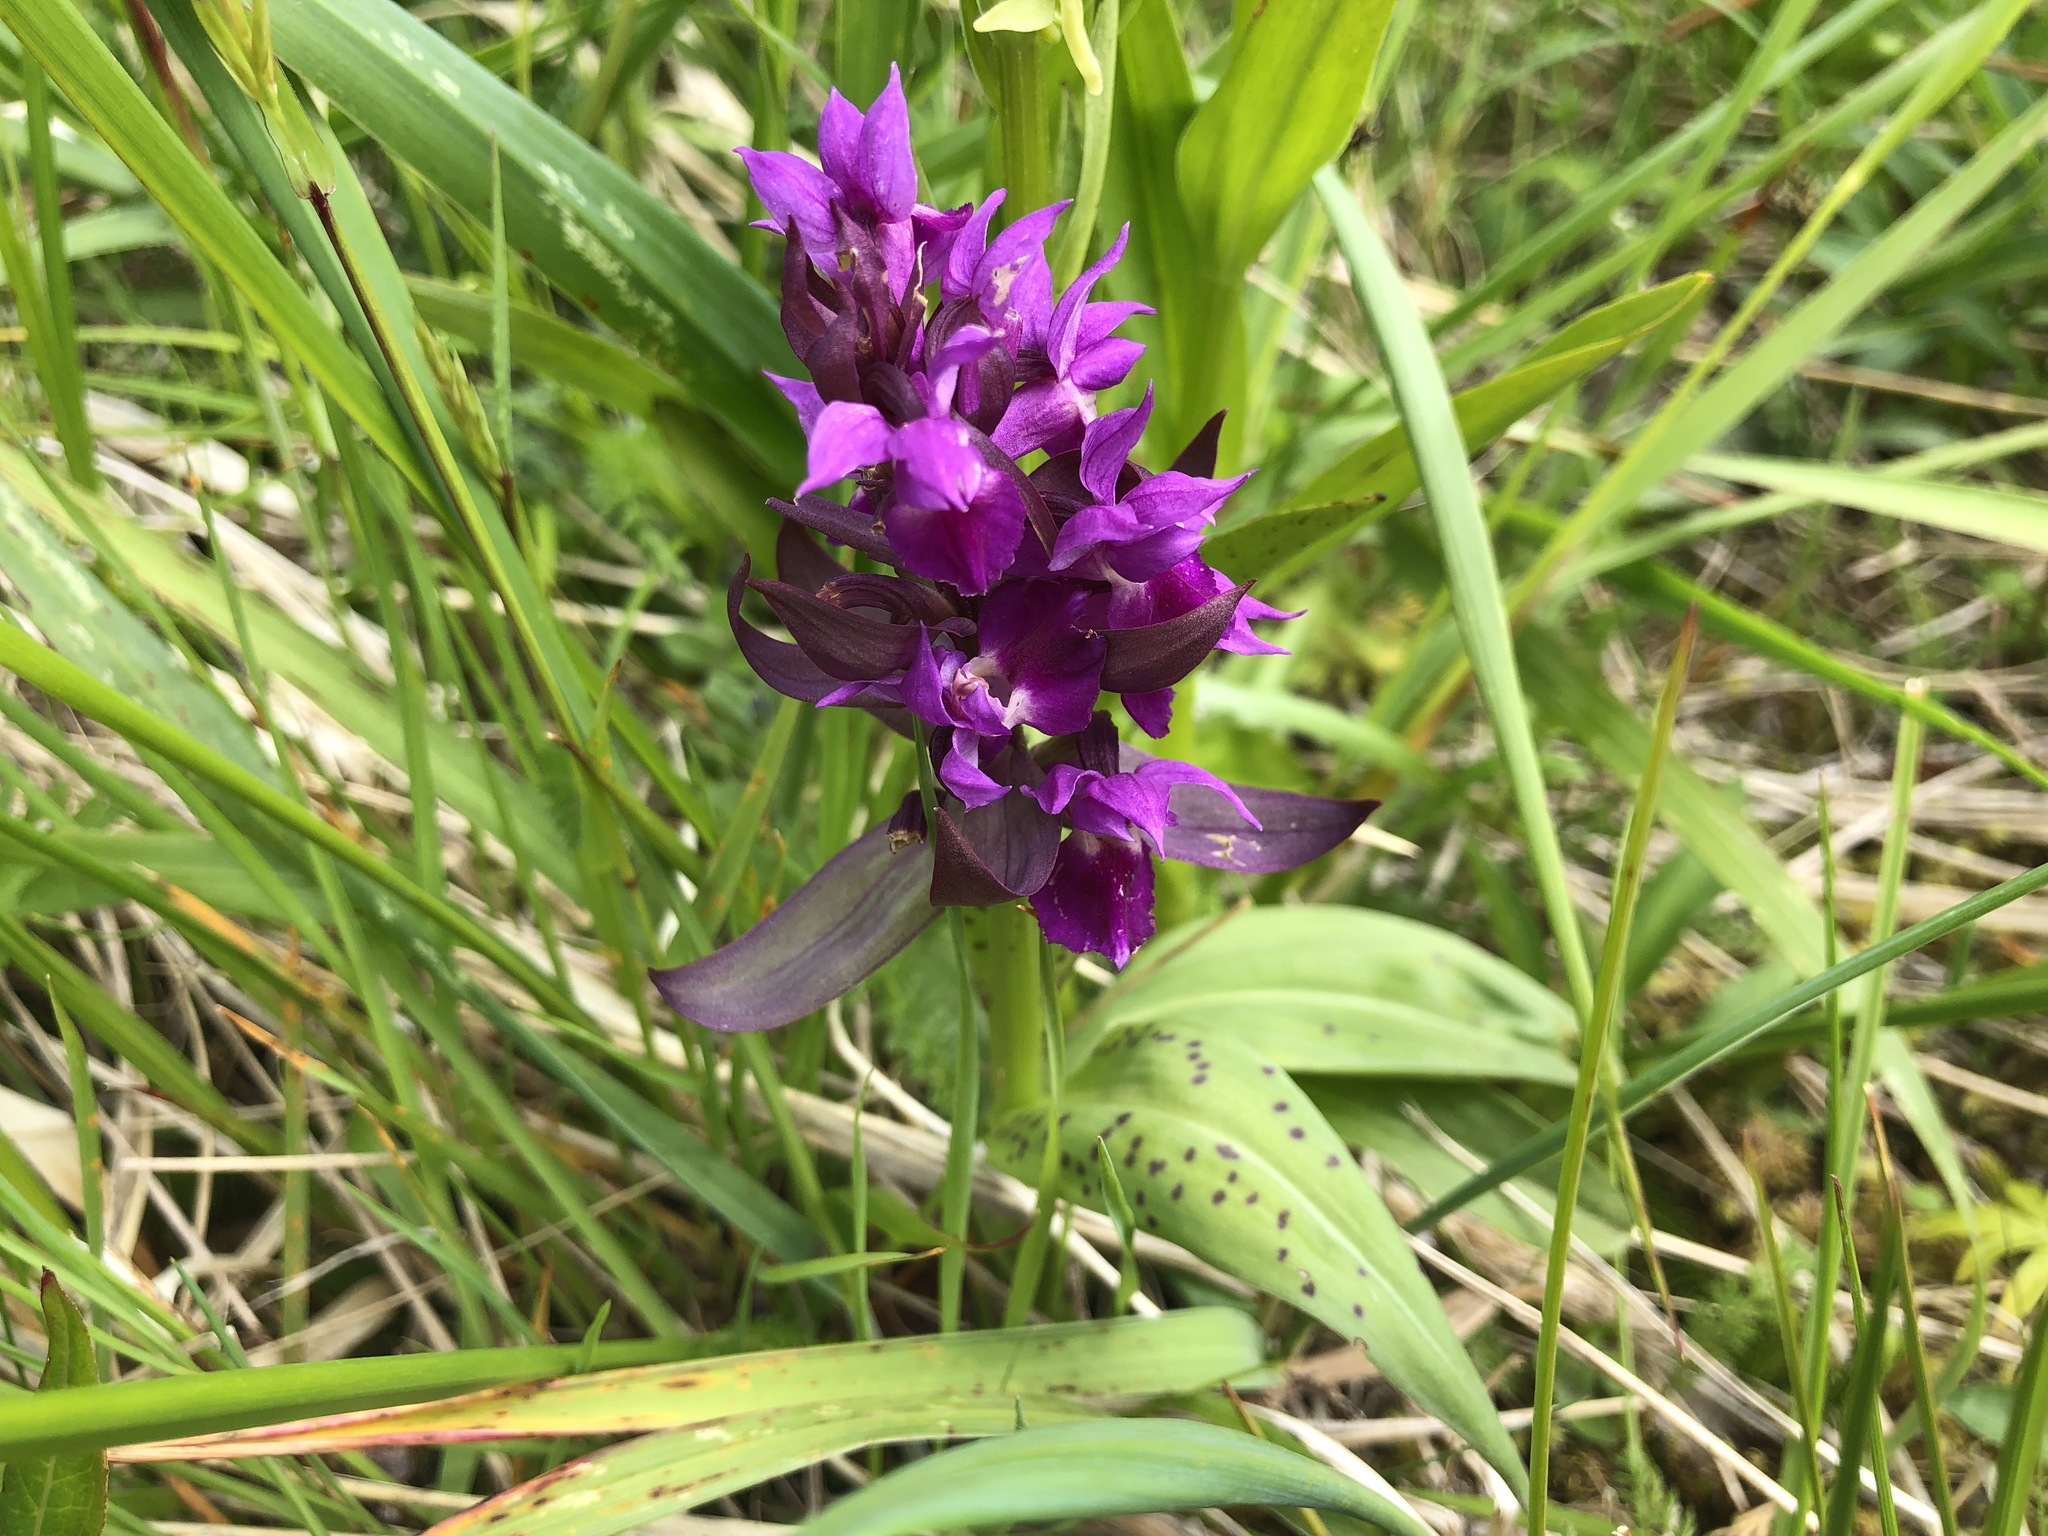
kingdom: Plantae
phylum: Tracheophyta
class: Liliopsida
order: Asparagales
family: Orchidaceae
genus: Dactylorhiza
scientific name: Dactylorhiza aristata
